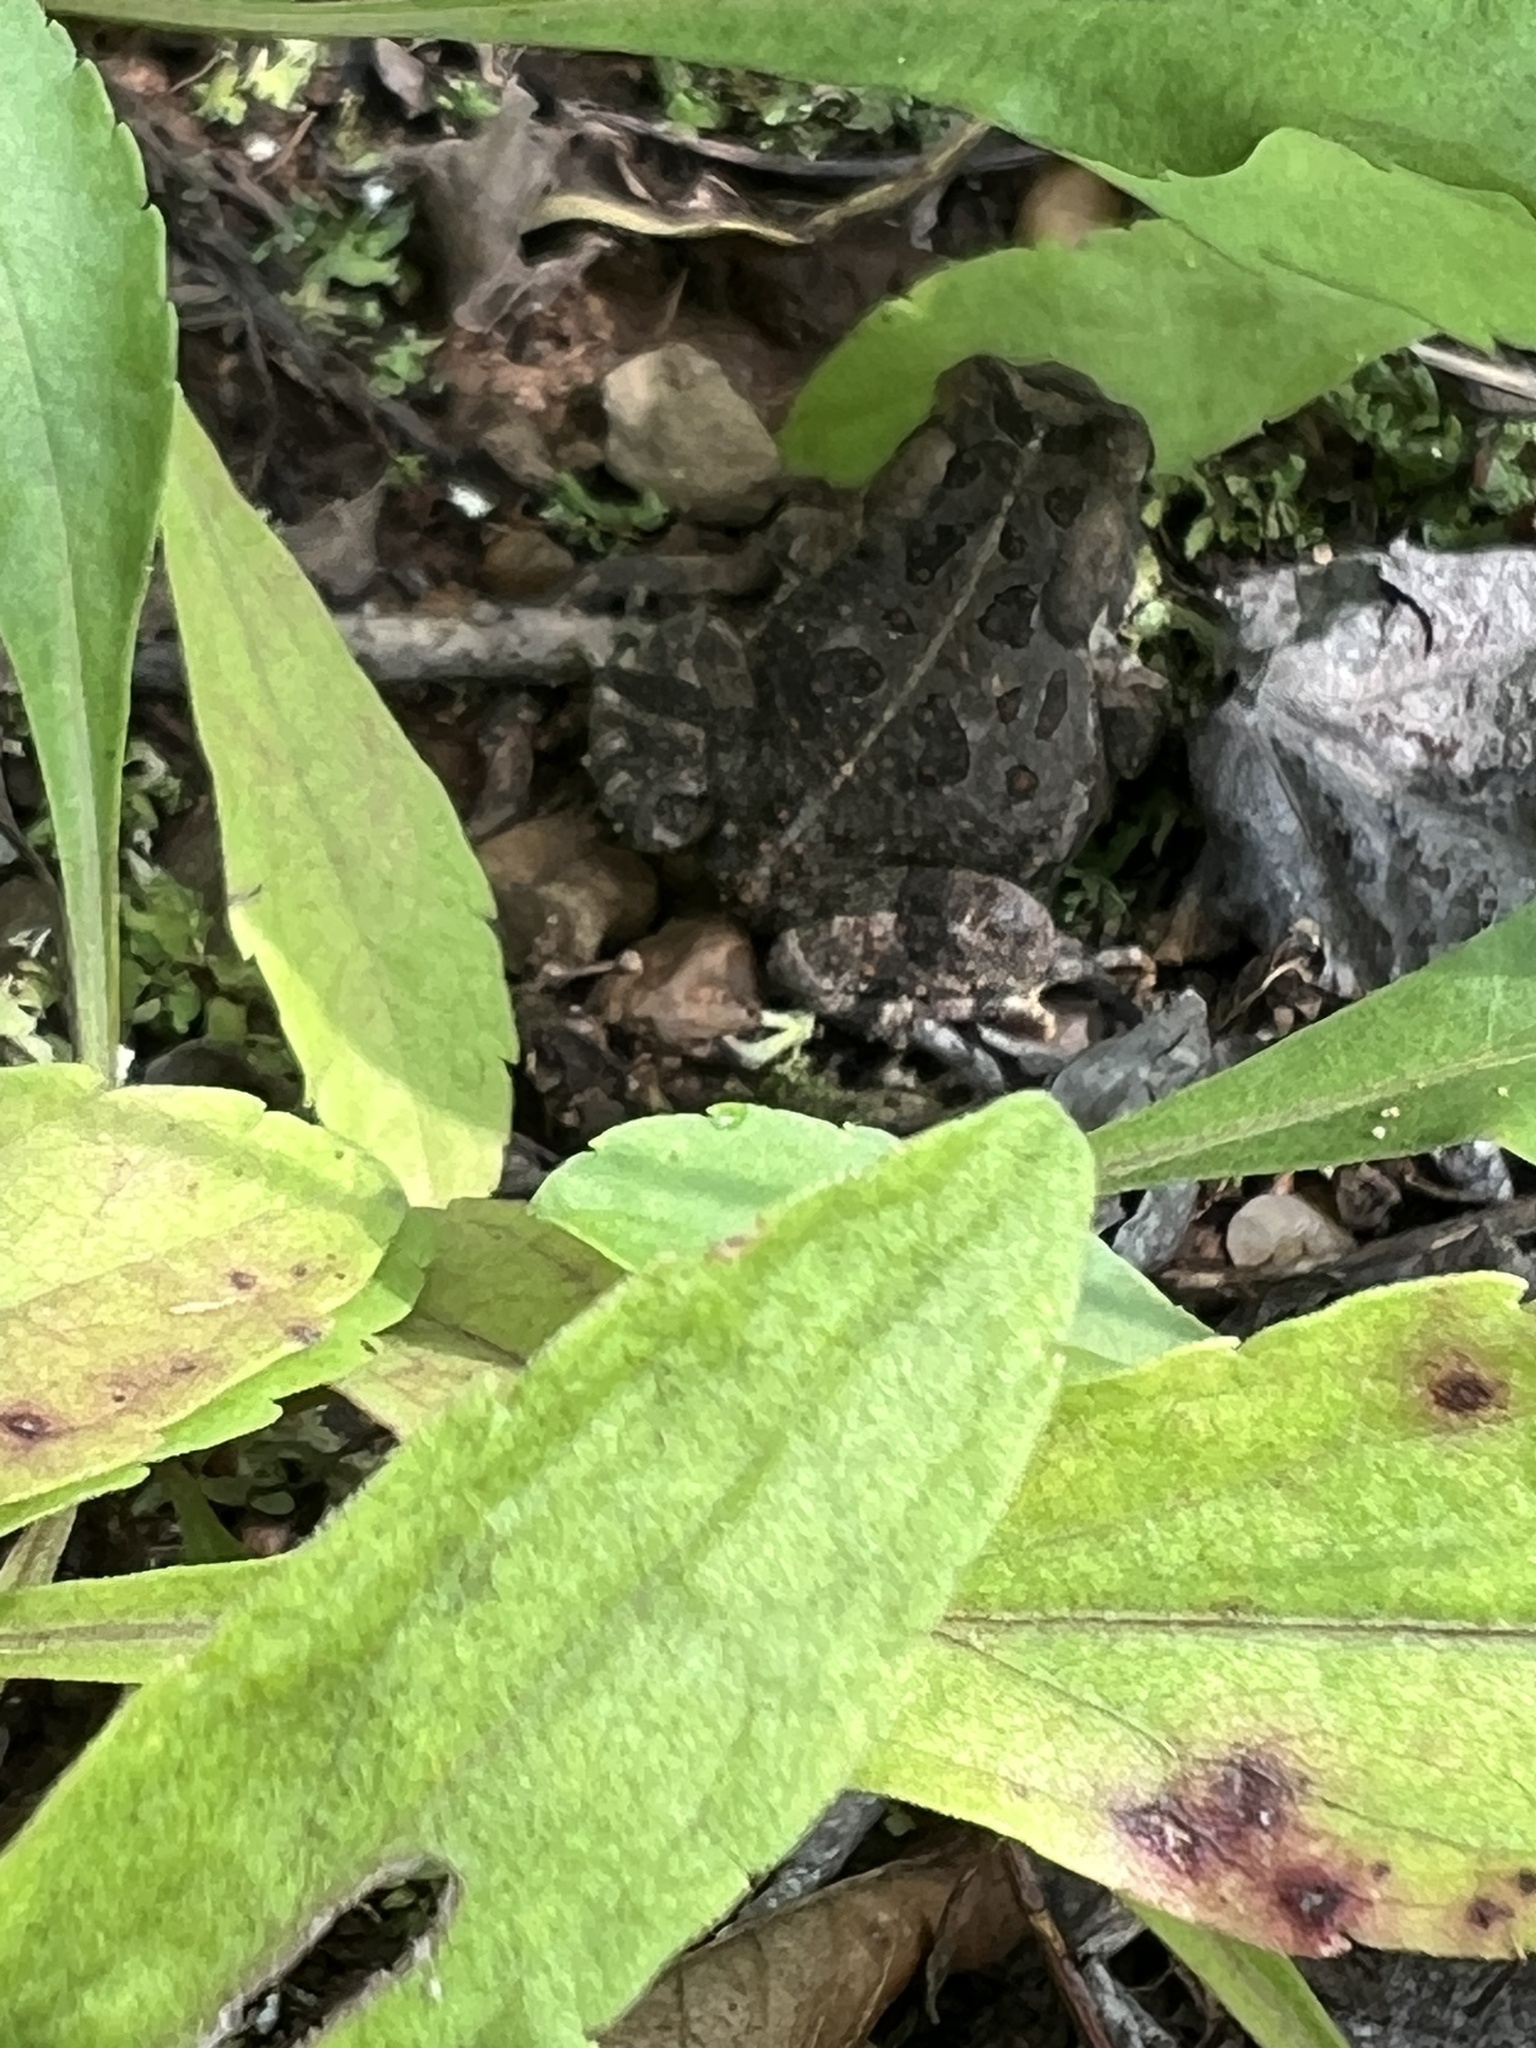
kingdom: Animalia
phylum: Chordata
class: Amphibia
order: Anura
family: Bufonidae
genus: Anaxyrus
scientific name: Anaxyrus fowleri
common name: Fowler's toad
